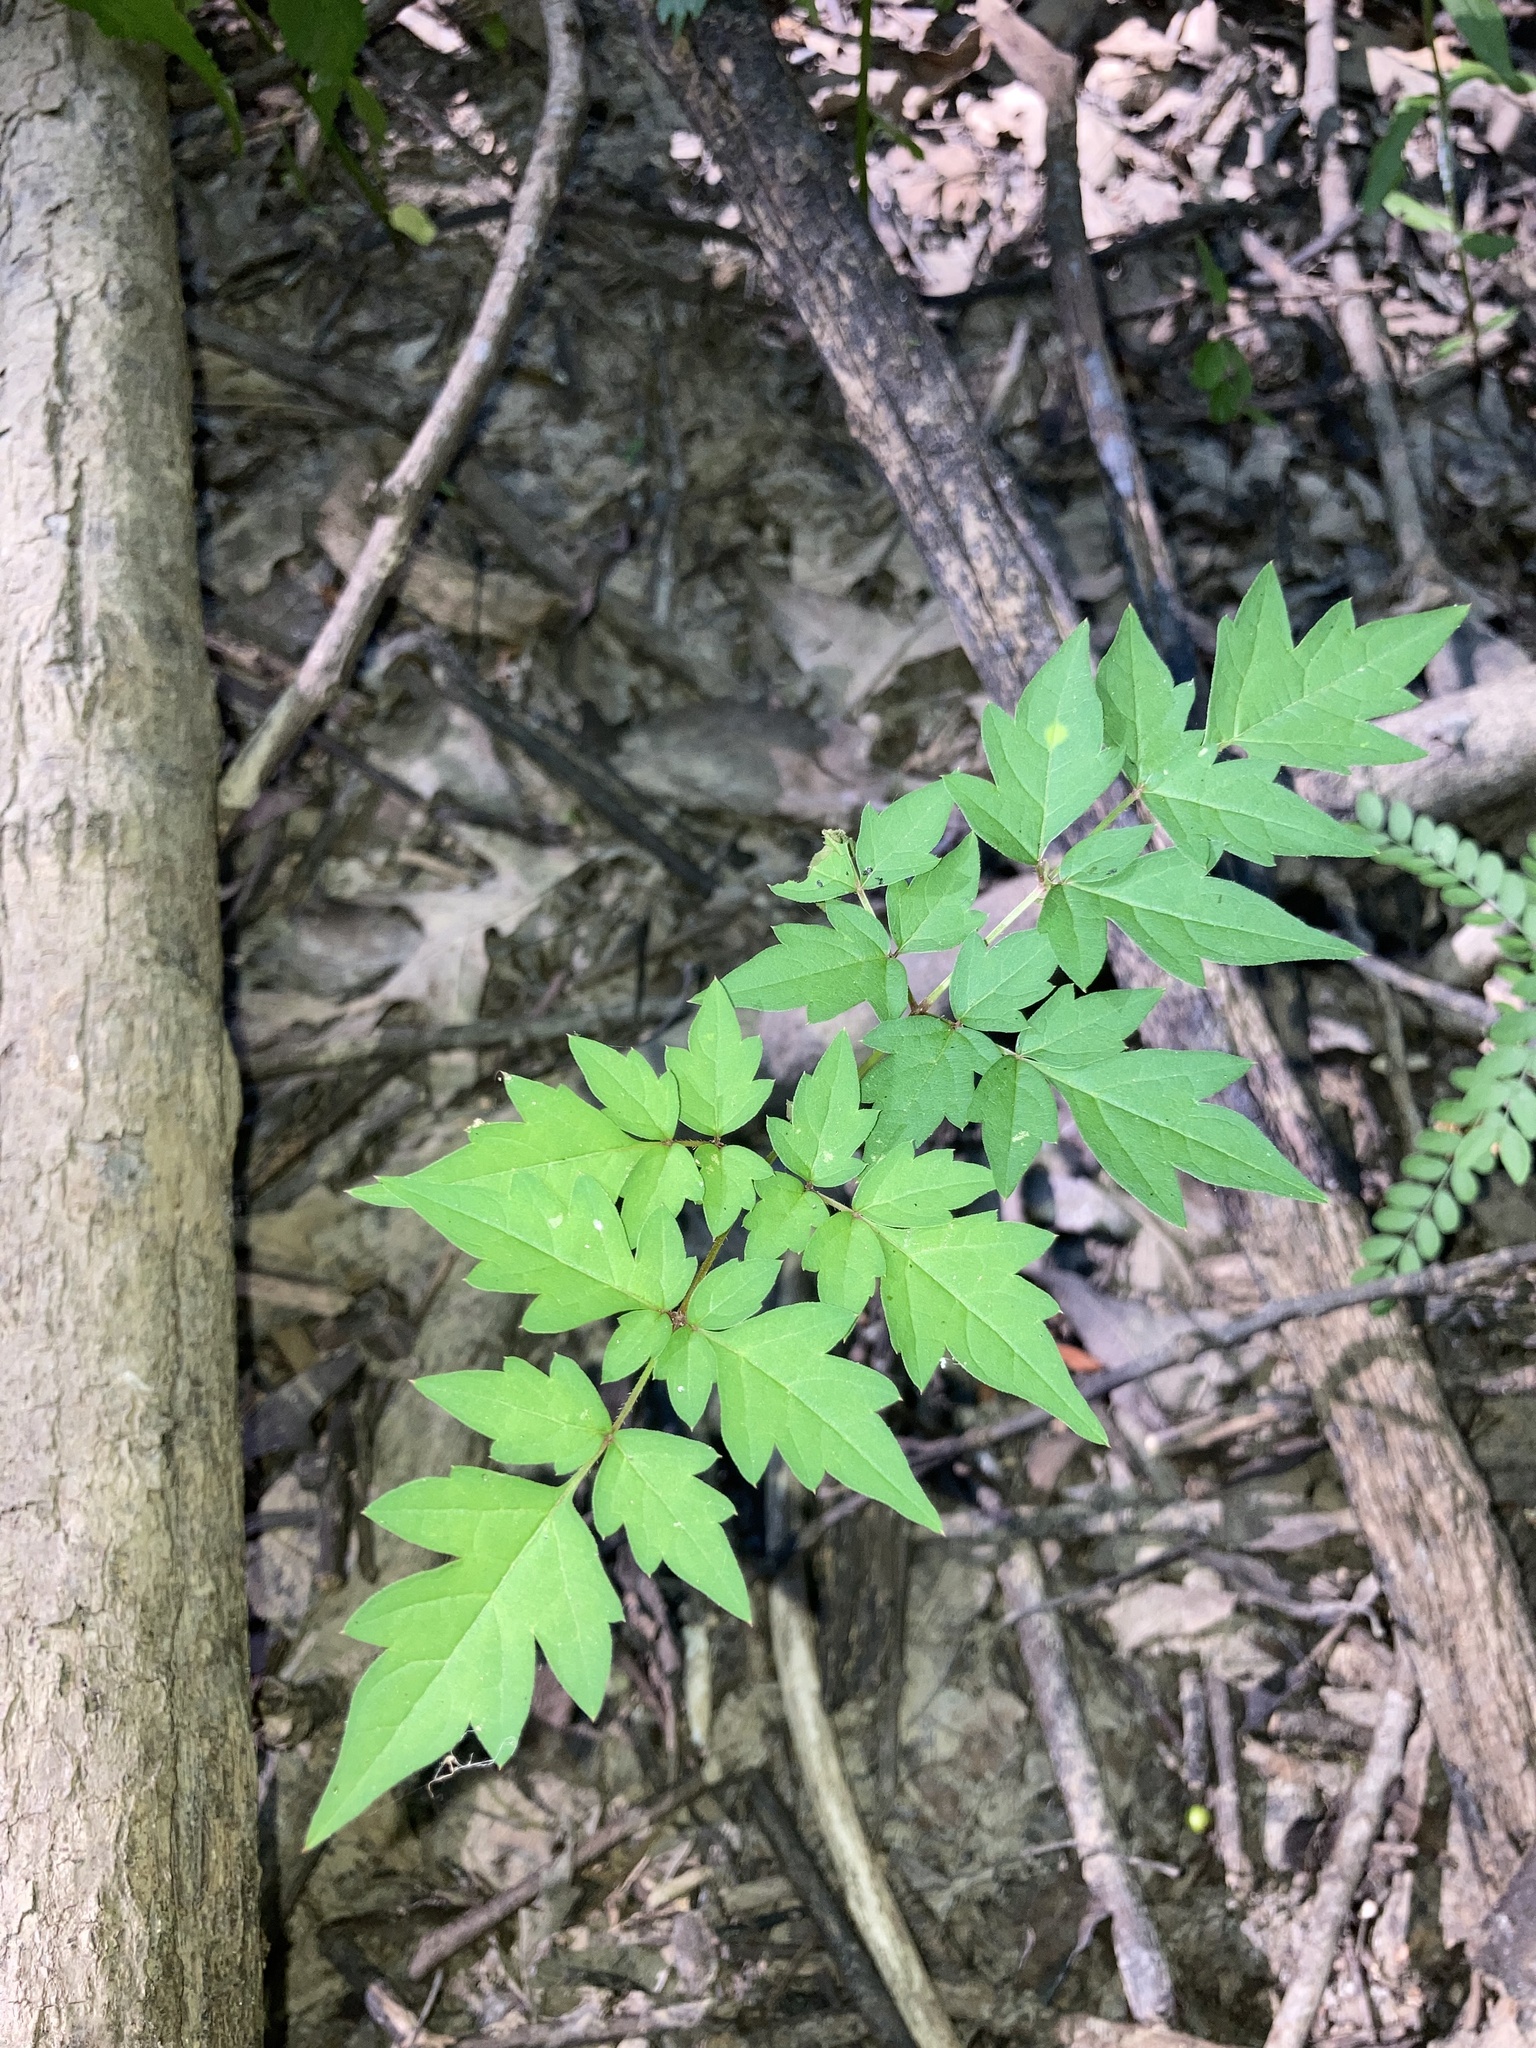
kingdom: Plantae
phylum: Tracheophyta
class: Magnoliopsida
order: Vitales
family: Vitaceae
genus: Nekemias
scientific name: Nekemias arborea
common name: Peppervine
